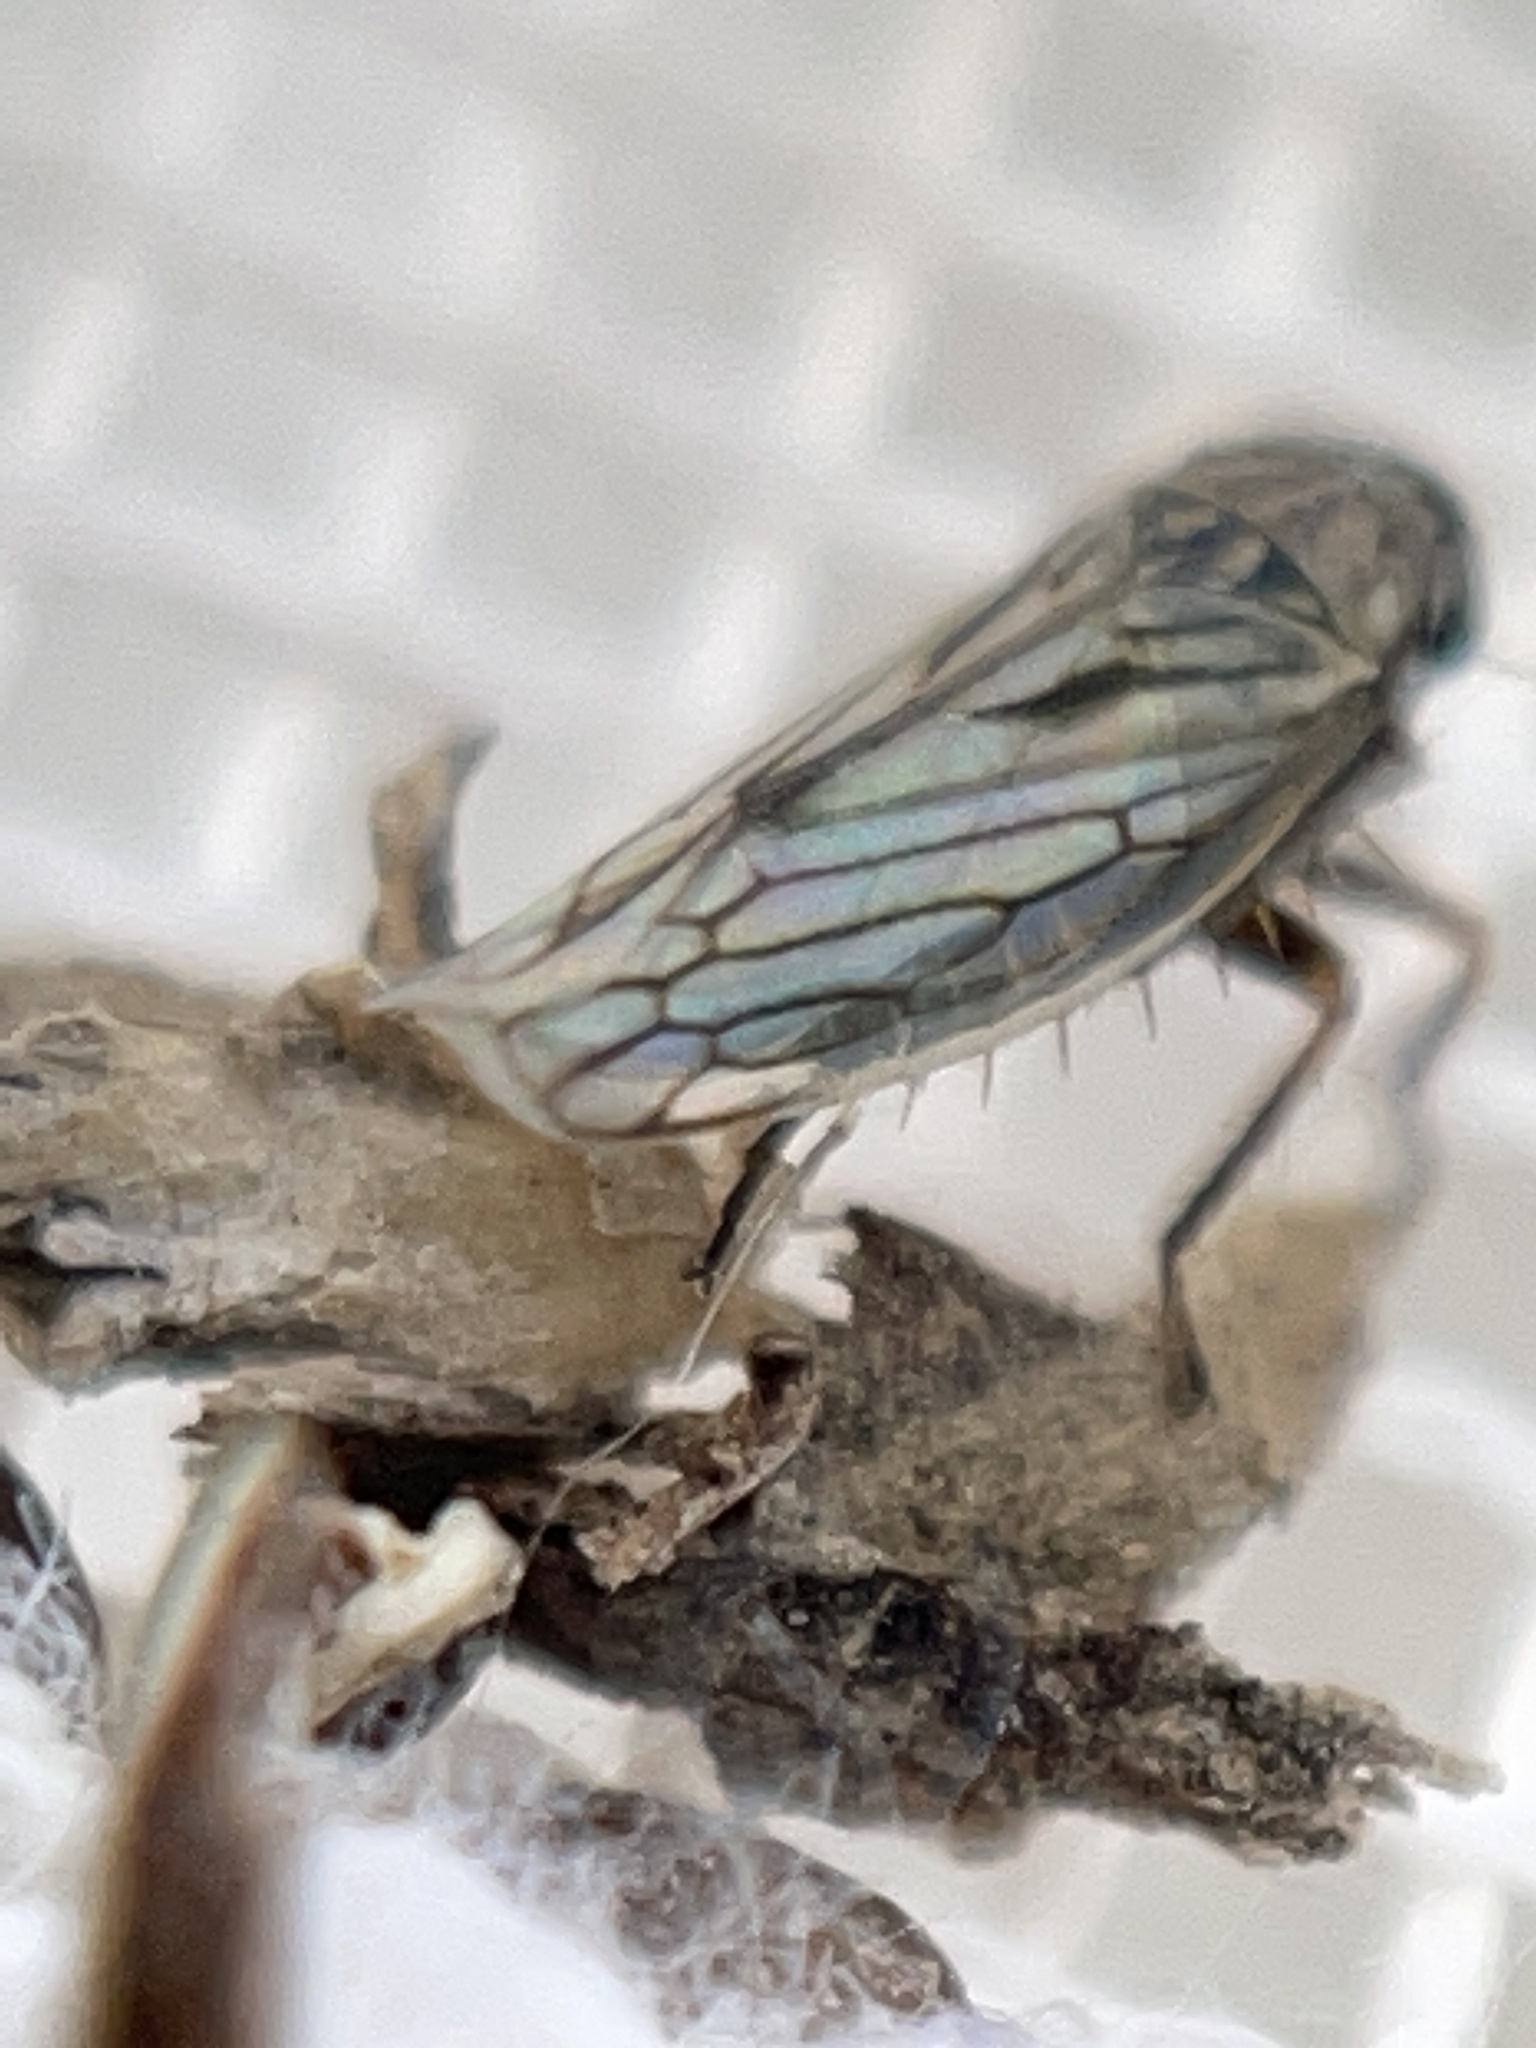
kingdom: Animalia
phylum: Arthropoda
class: Insecta
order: Hemiptera
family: Cicadellidae
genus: Exitianus
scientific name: Exitianus exitiosus
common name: Gray lawn leafhopper
